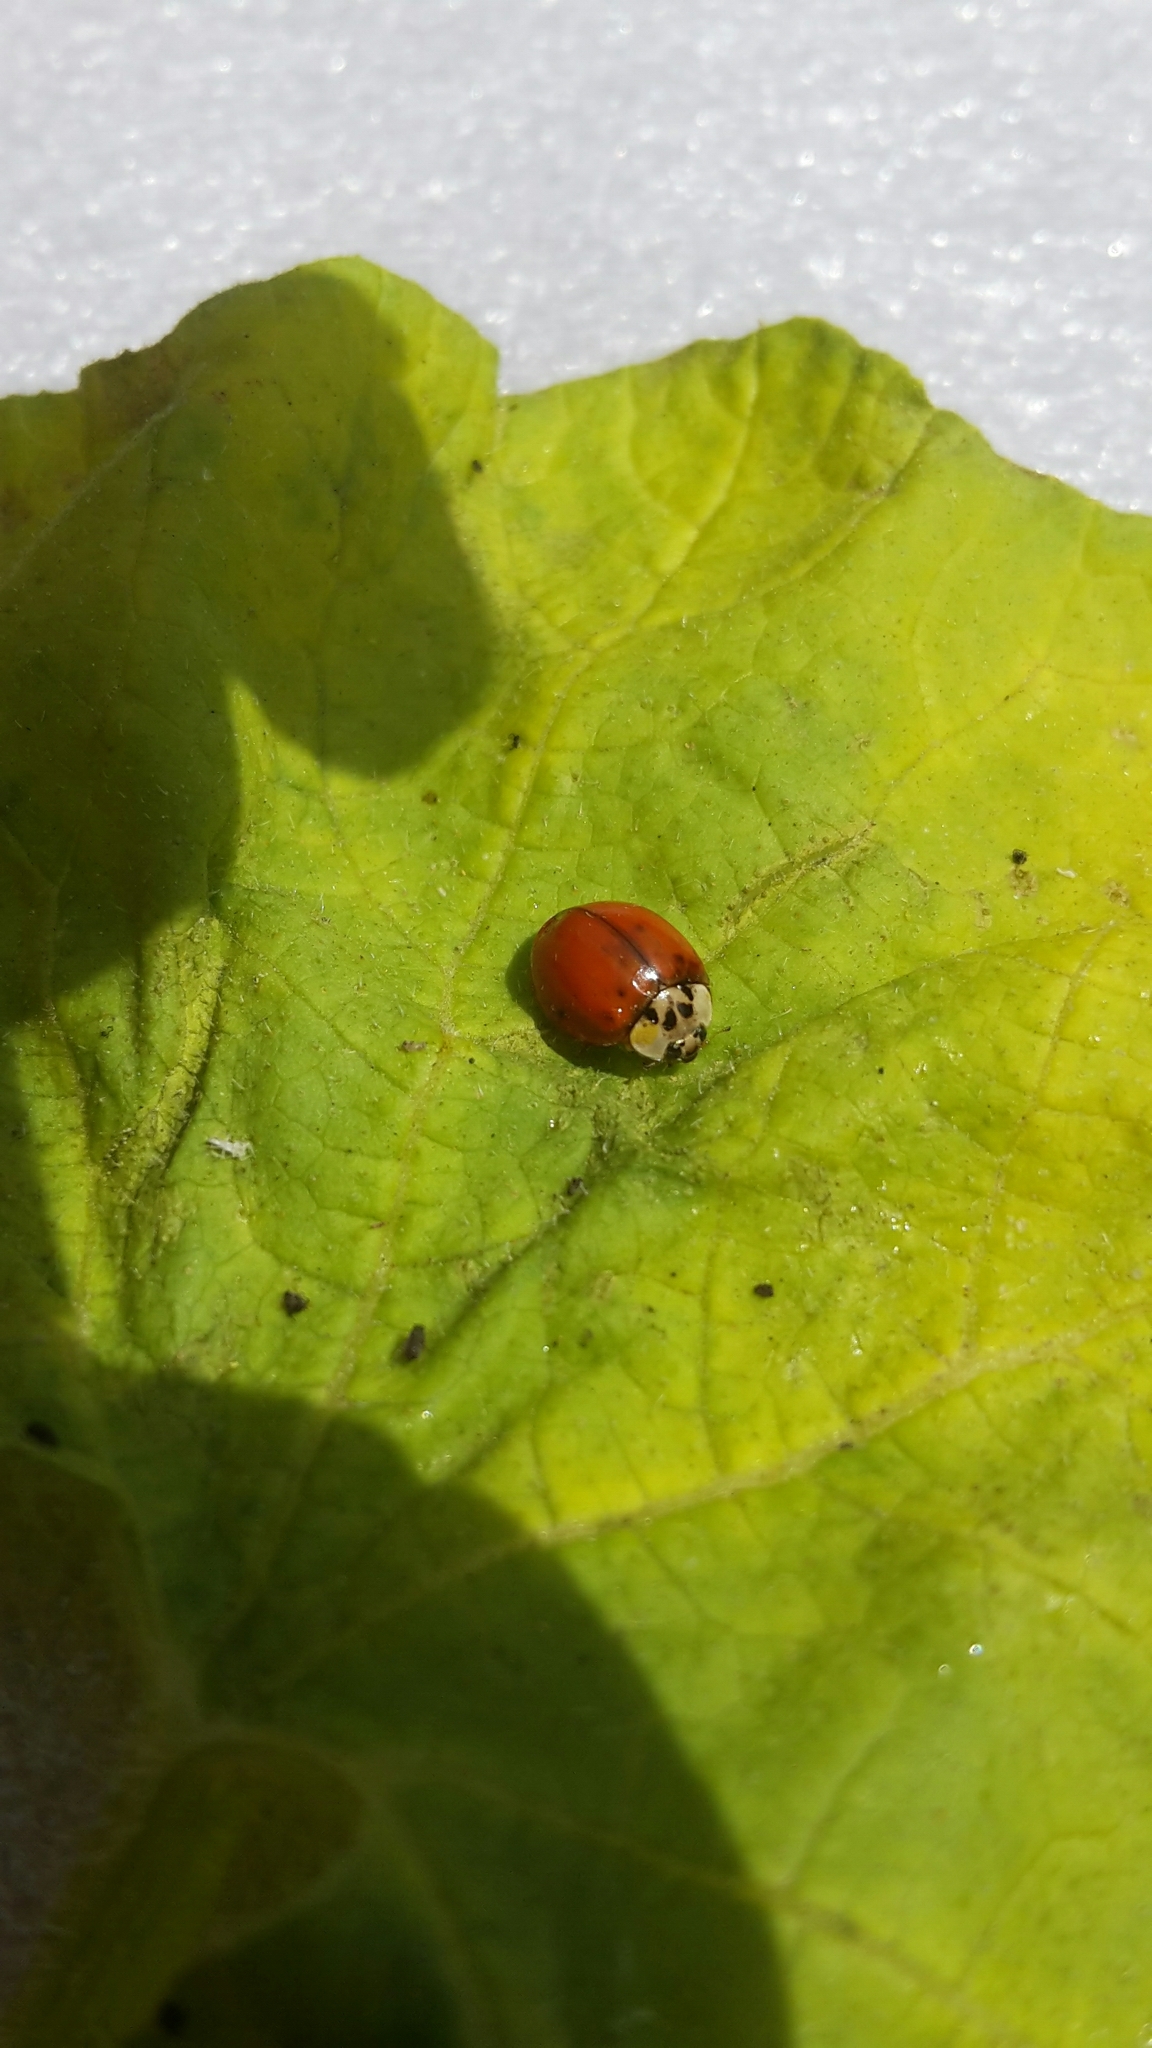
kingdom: Animalia
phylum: Arthropoda
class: Insecta
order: Coleoptera
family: Coccinellidae
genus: Harmonia
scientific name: Harmonia axyridis
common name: Harlequin ladybird
